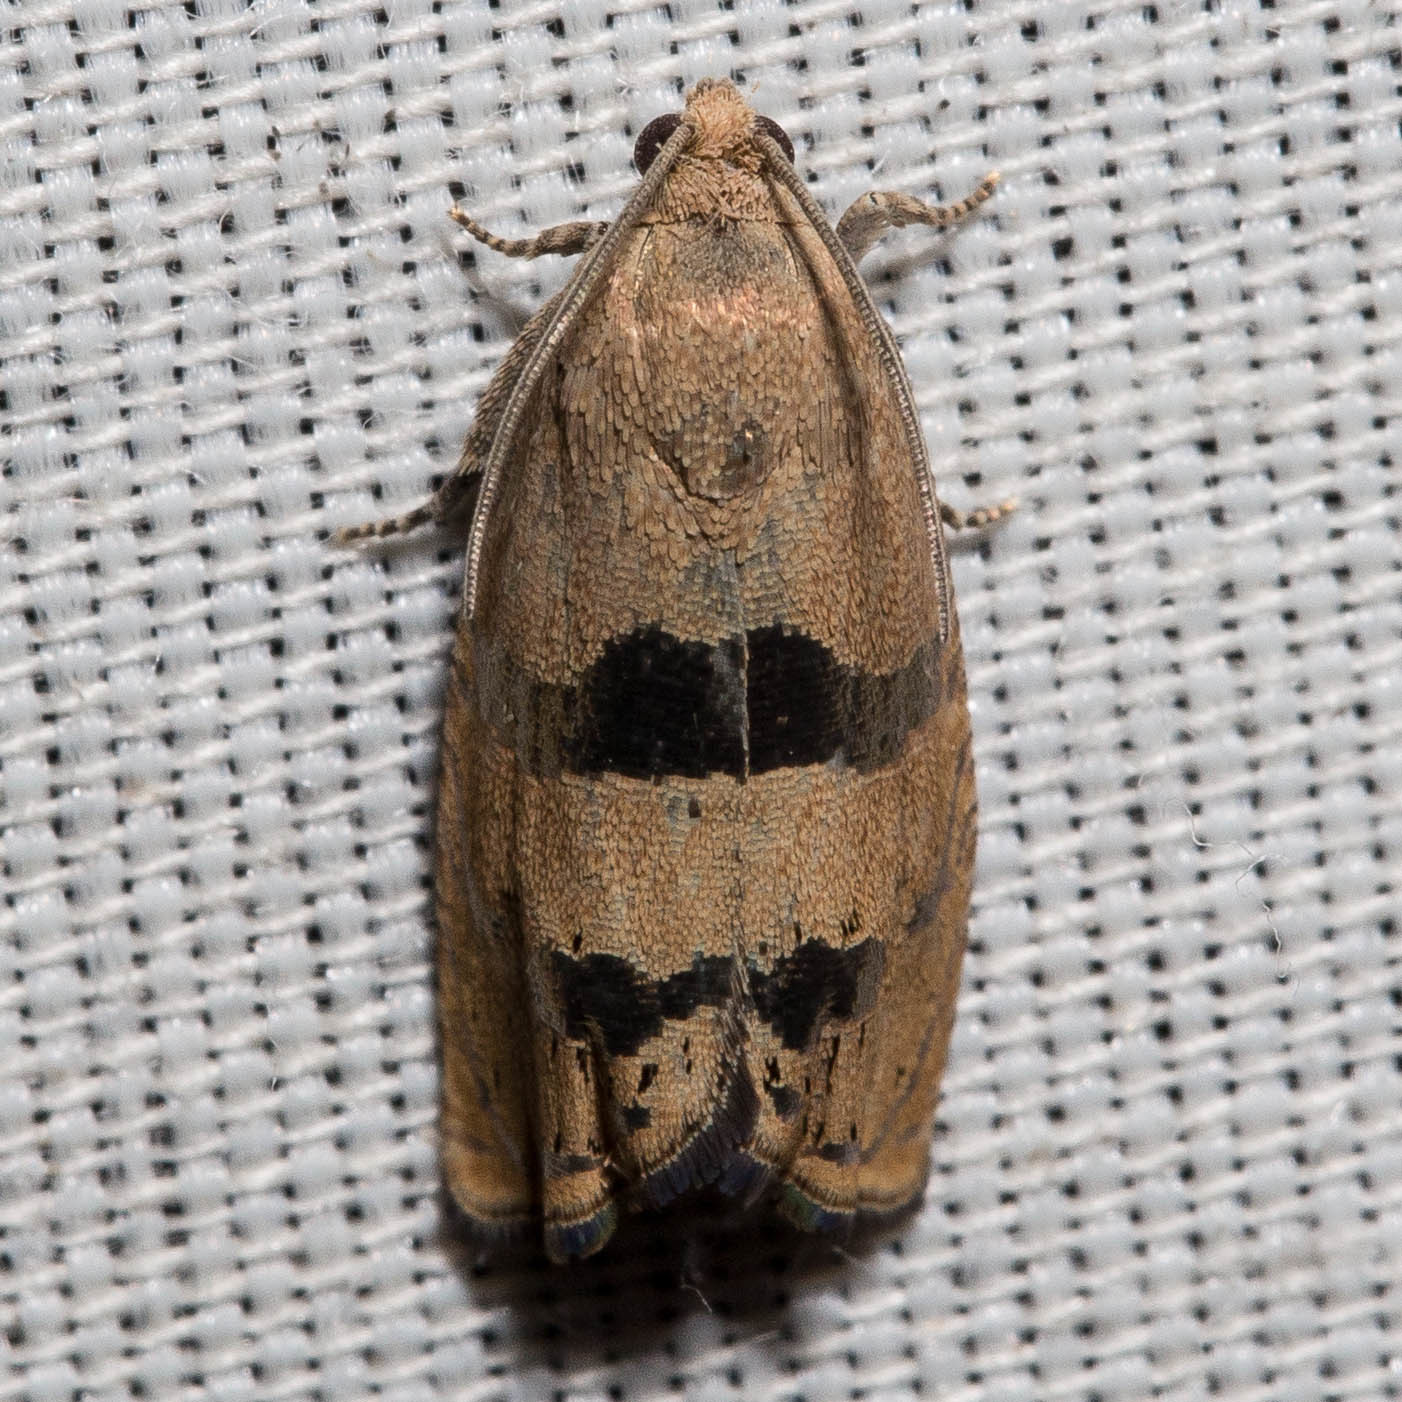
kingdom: Animalia
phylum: Arthropoda
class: Insecta
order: Lepidoptera
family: Tortricidae
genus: Cydia
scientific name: Cydia latiferreana
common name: Filbertworm moth
